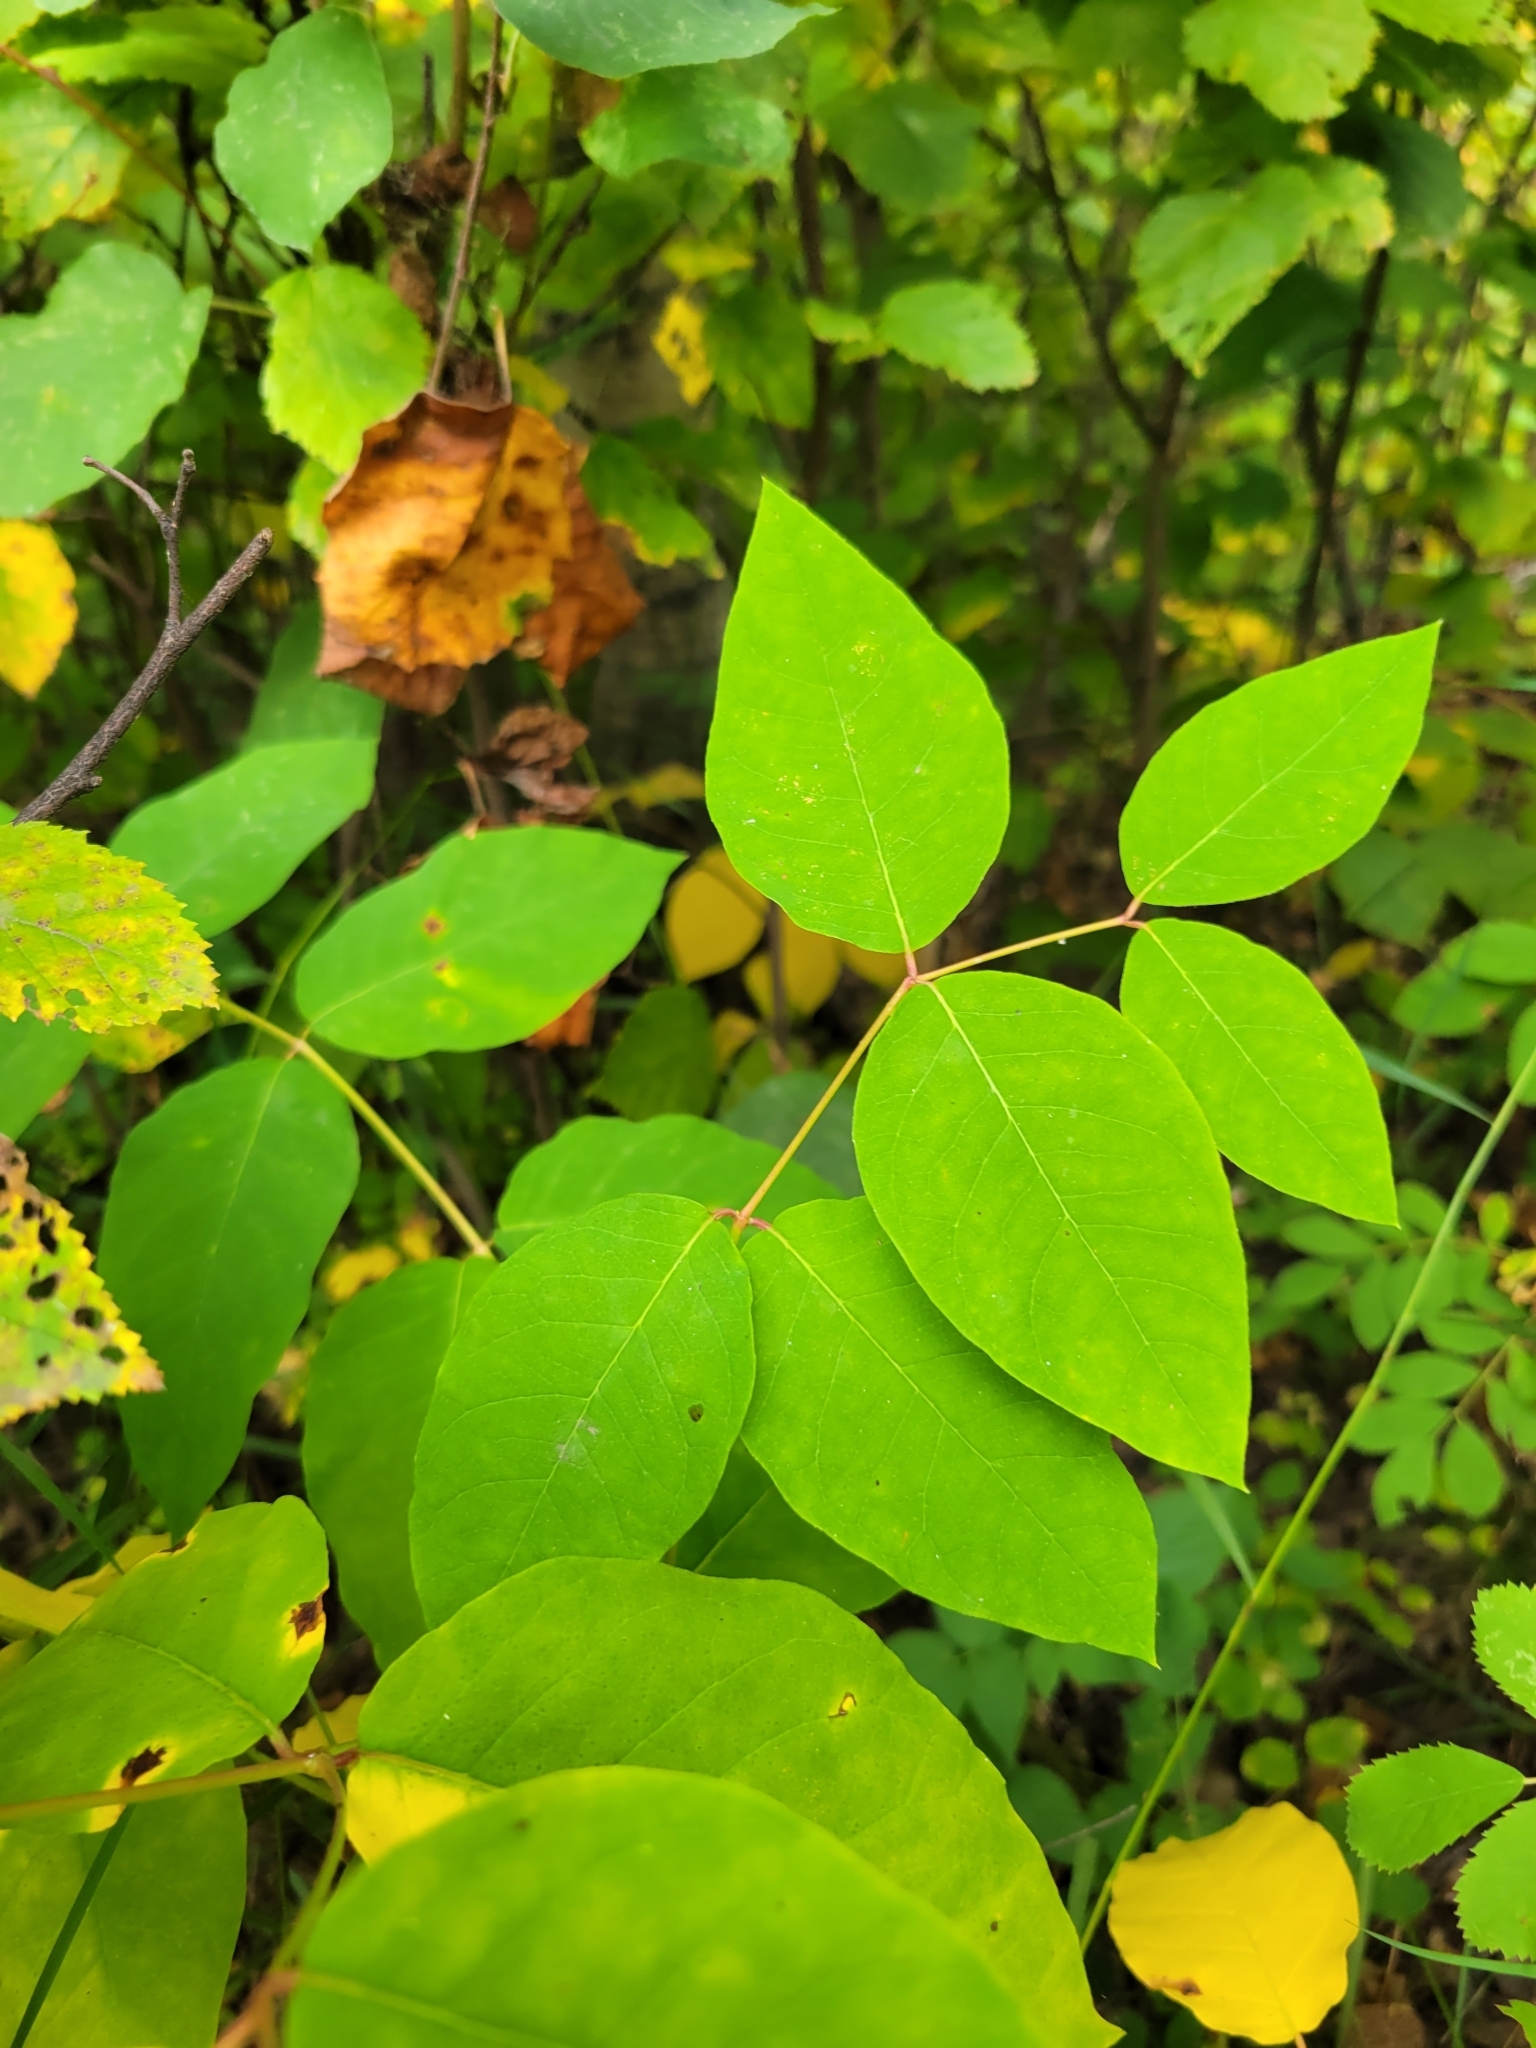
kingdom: Plantae
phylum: Tracheophyta
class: Magnoliopsida
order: Gentianales
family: Apocynaceae
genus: Apocynum
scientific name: Apocynum androsaemifolium
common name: Spreading dogbane
